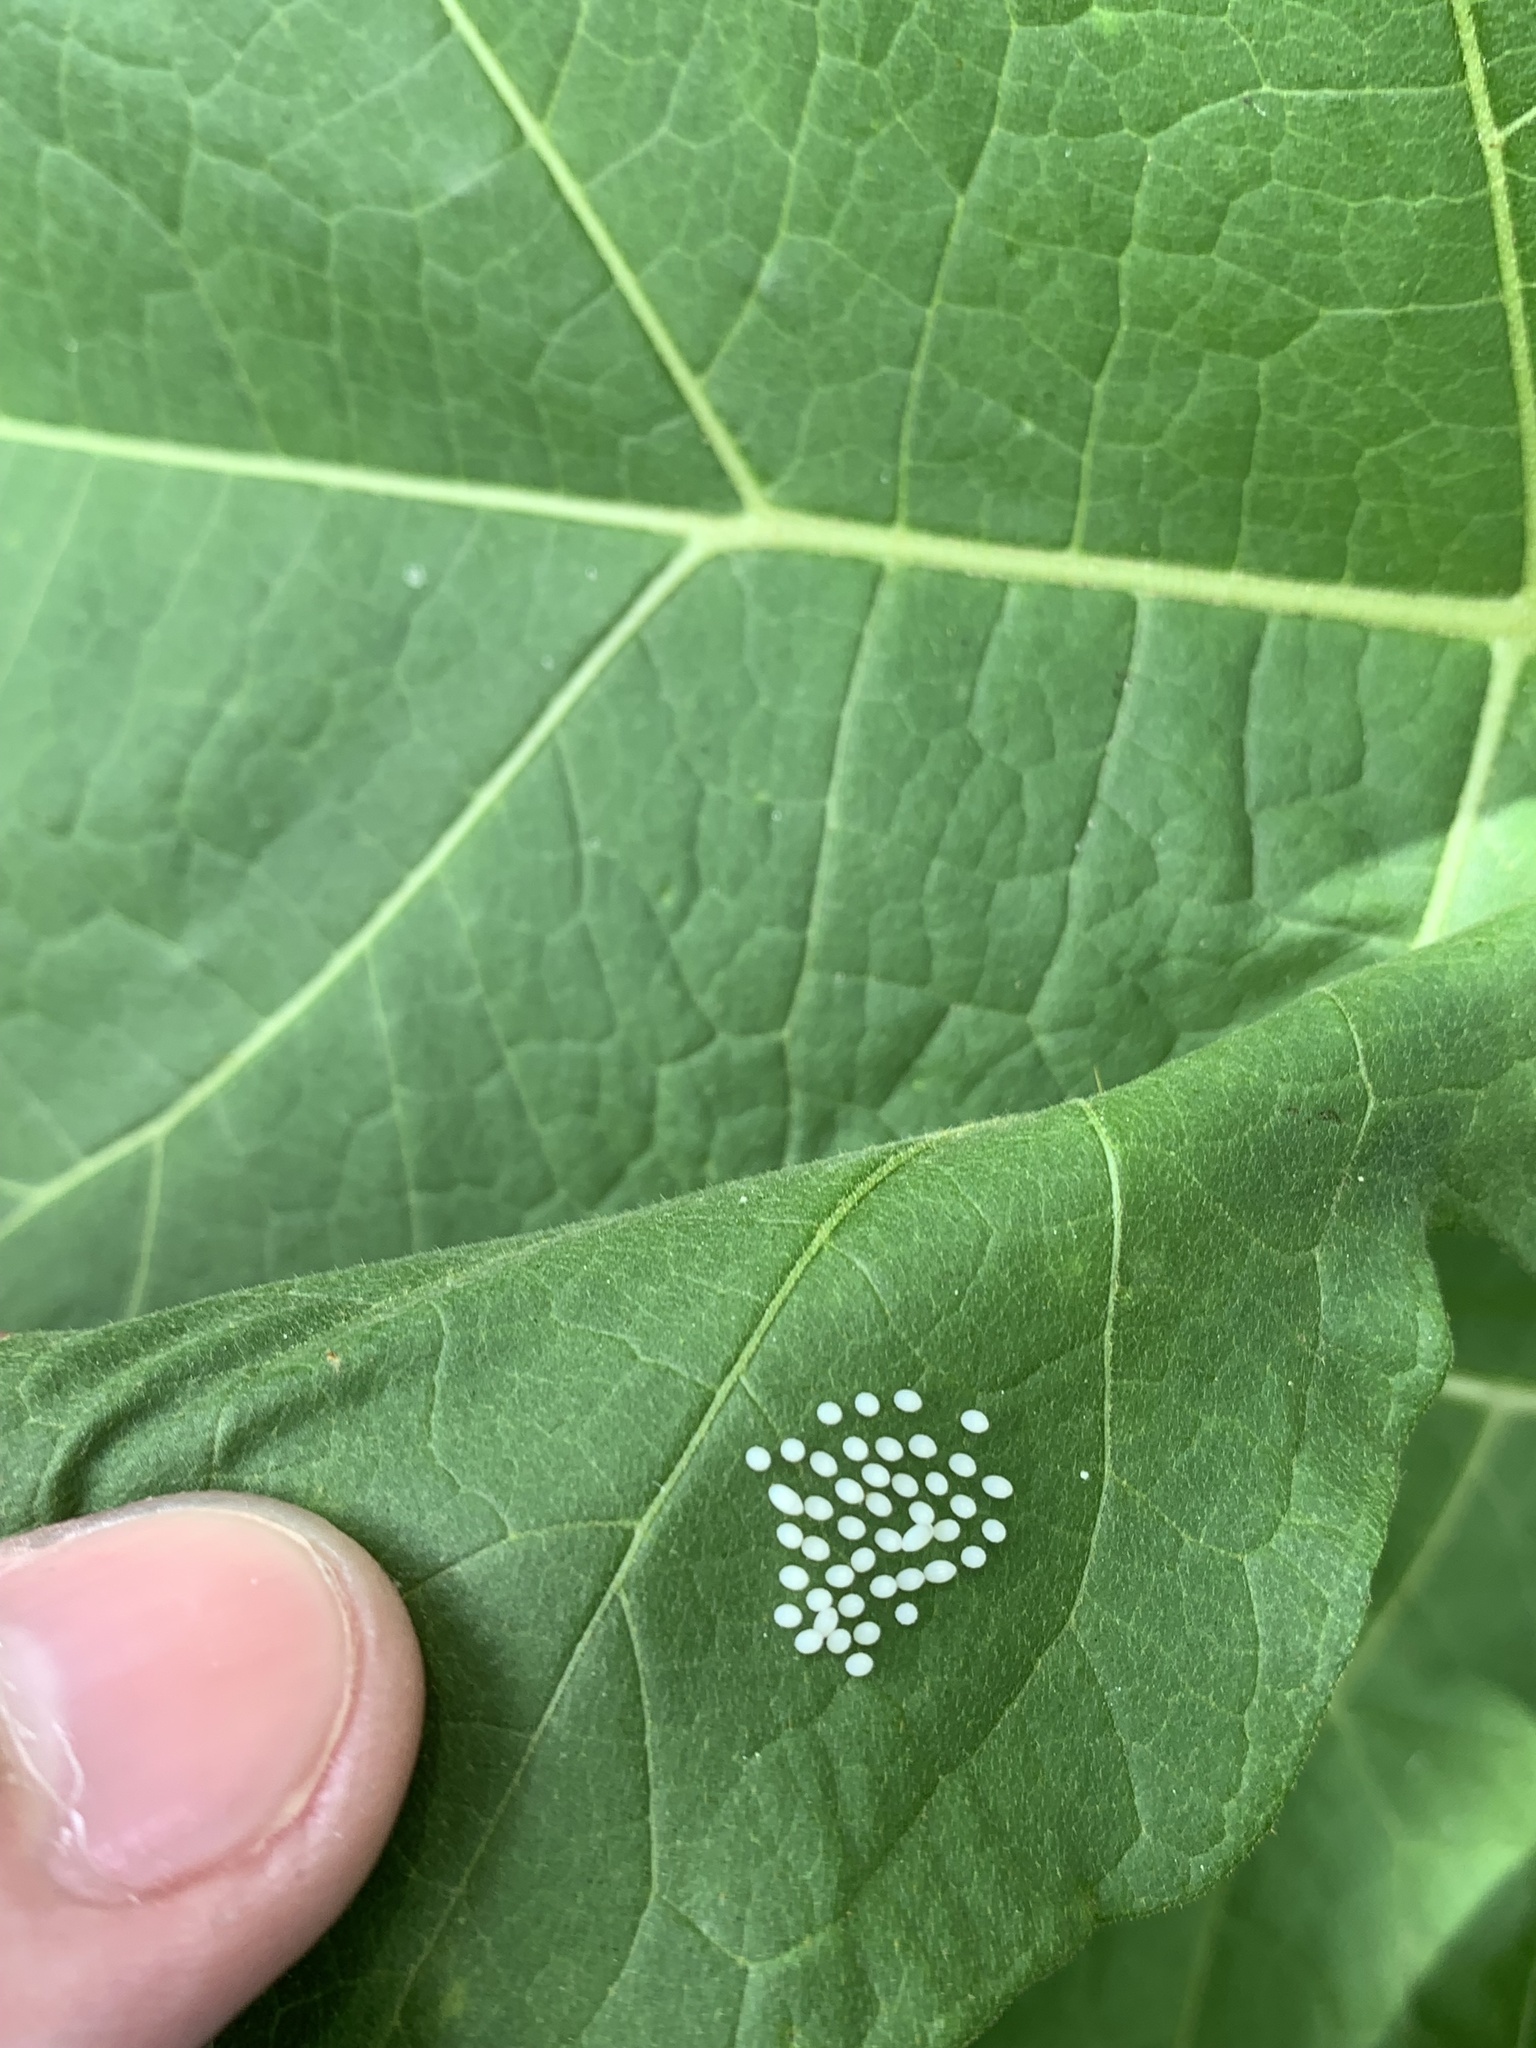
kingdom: Animalia
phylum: Arthropoda
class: Insecta
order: Lepidoptera
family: Nymphalidae
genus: Mechanitis
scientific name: Mechanitis lysimnia
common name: Lysimnia tigerwing
